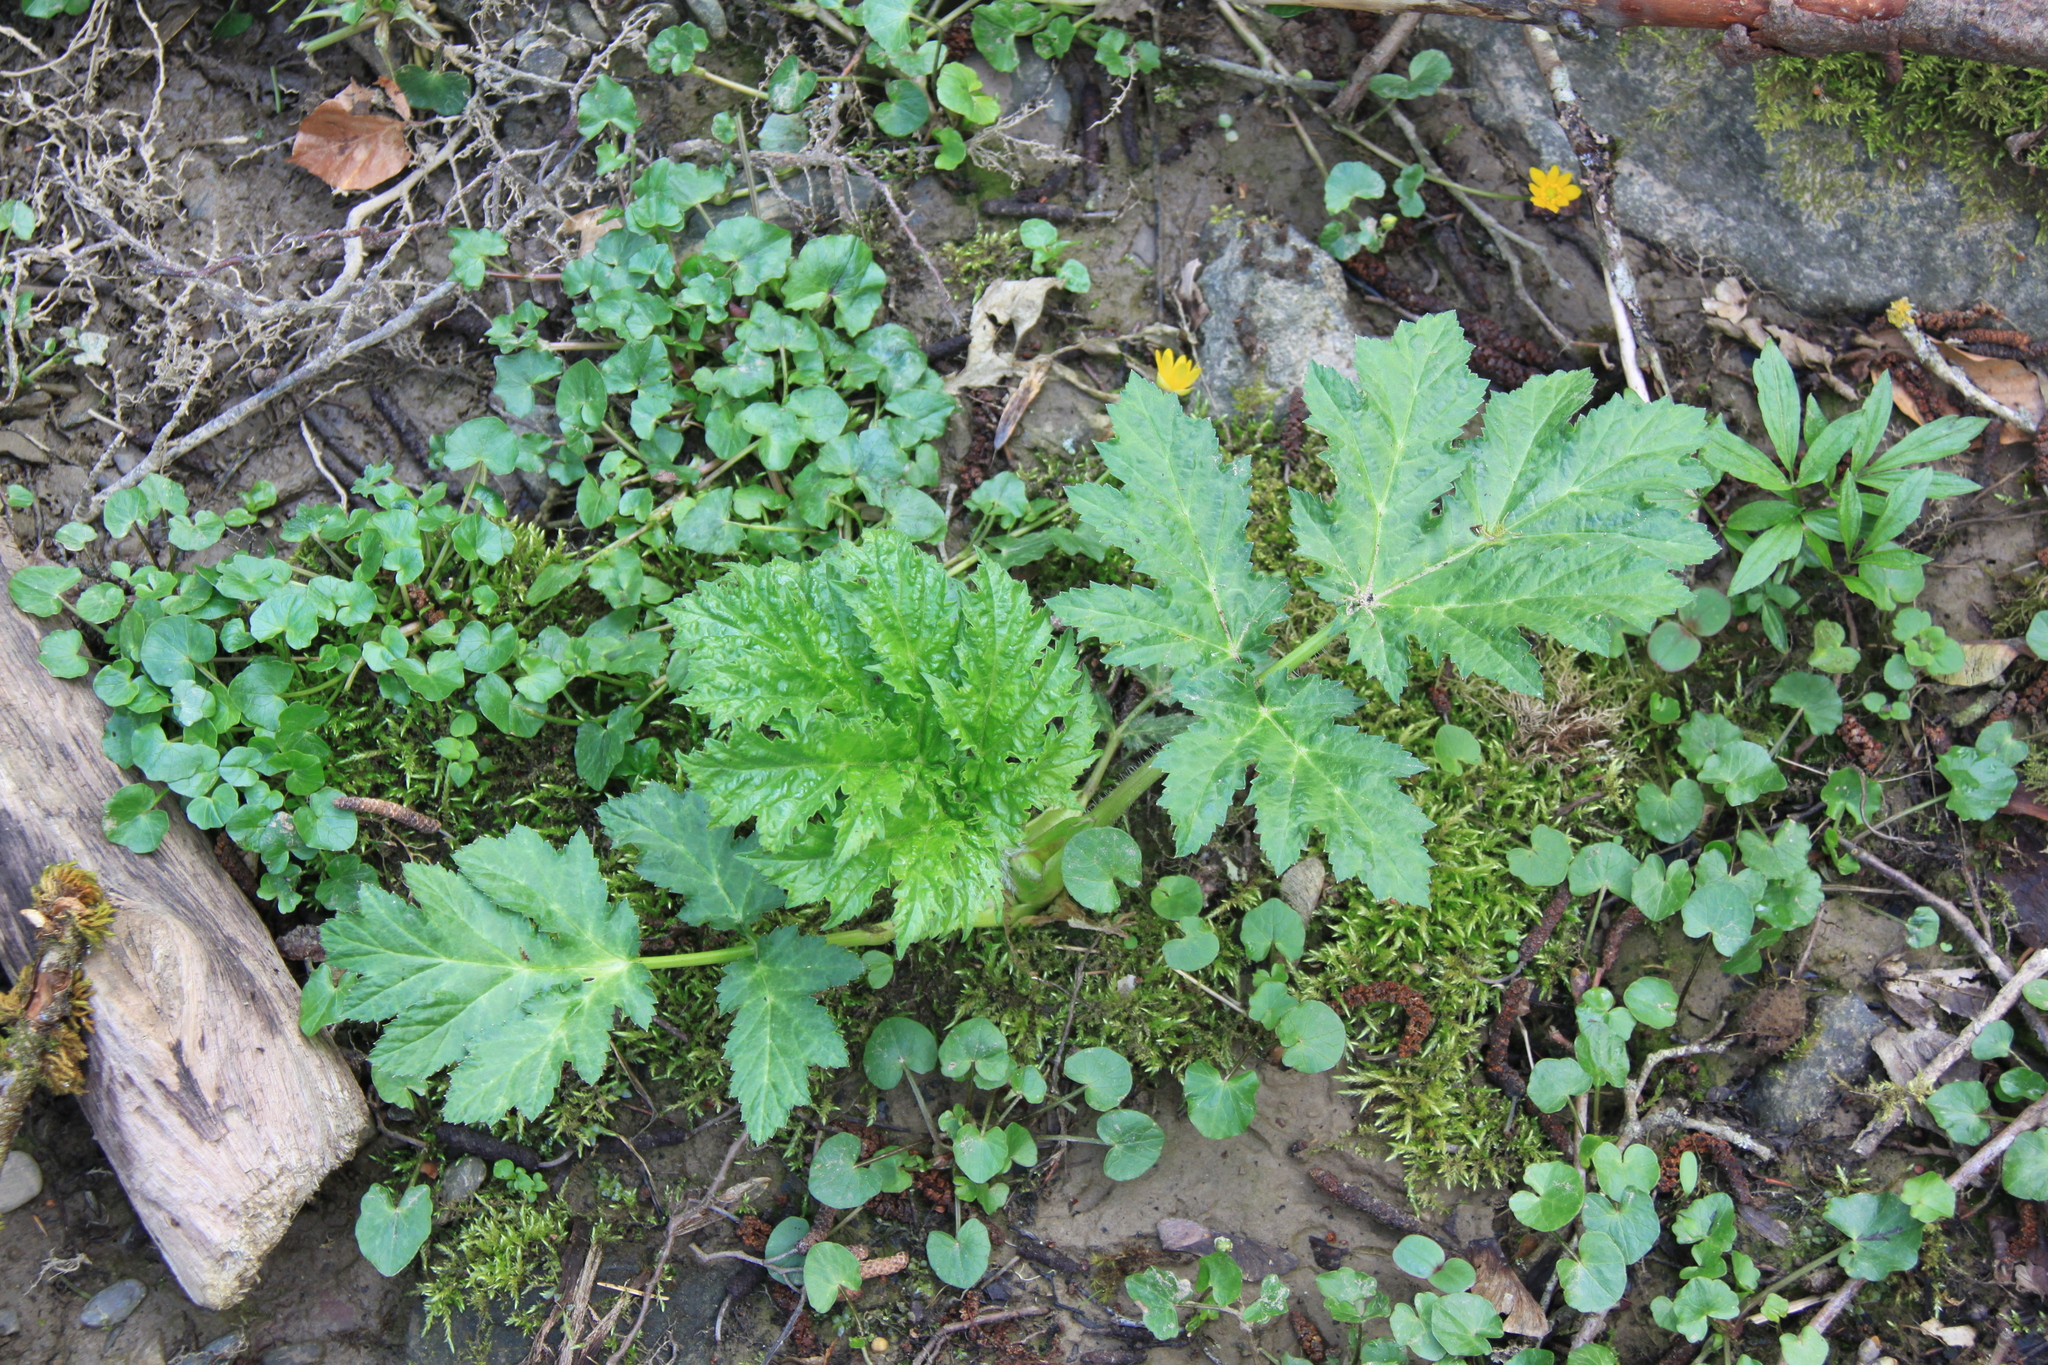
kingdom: Plantae
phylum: Tracheophyta
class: Magnoliopsida
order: Apiales
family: Apiaceae
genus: Heracleum
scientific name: Heracleum mantegazzianum
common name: Giant hogweed
